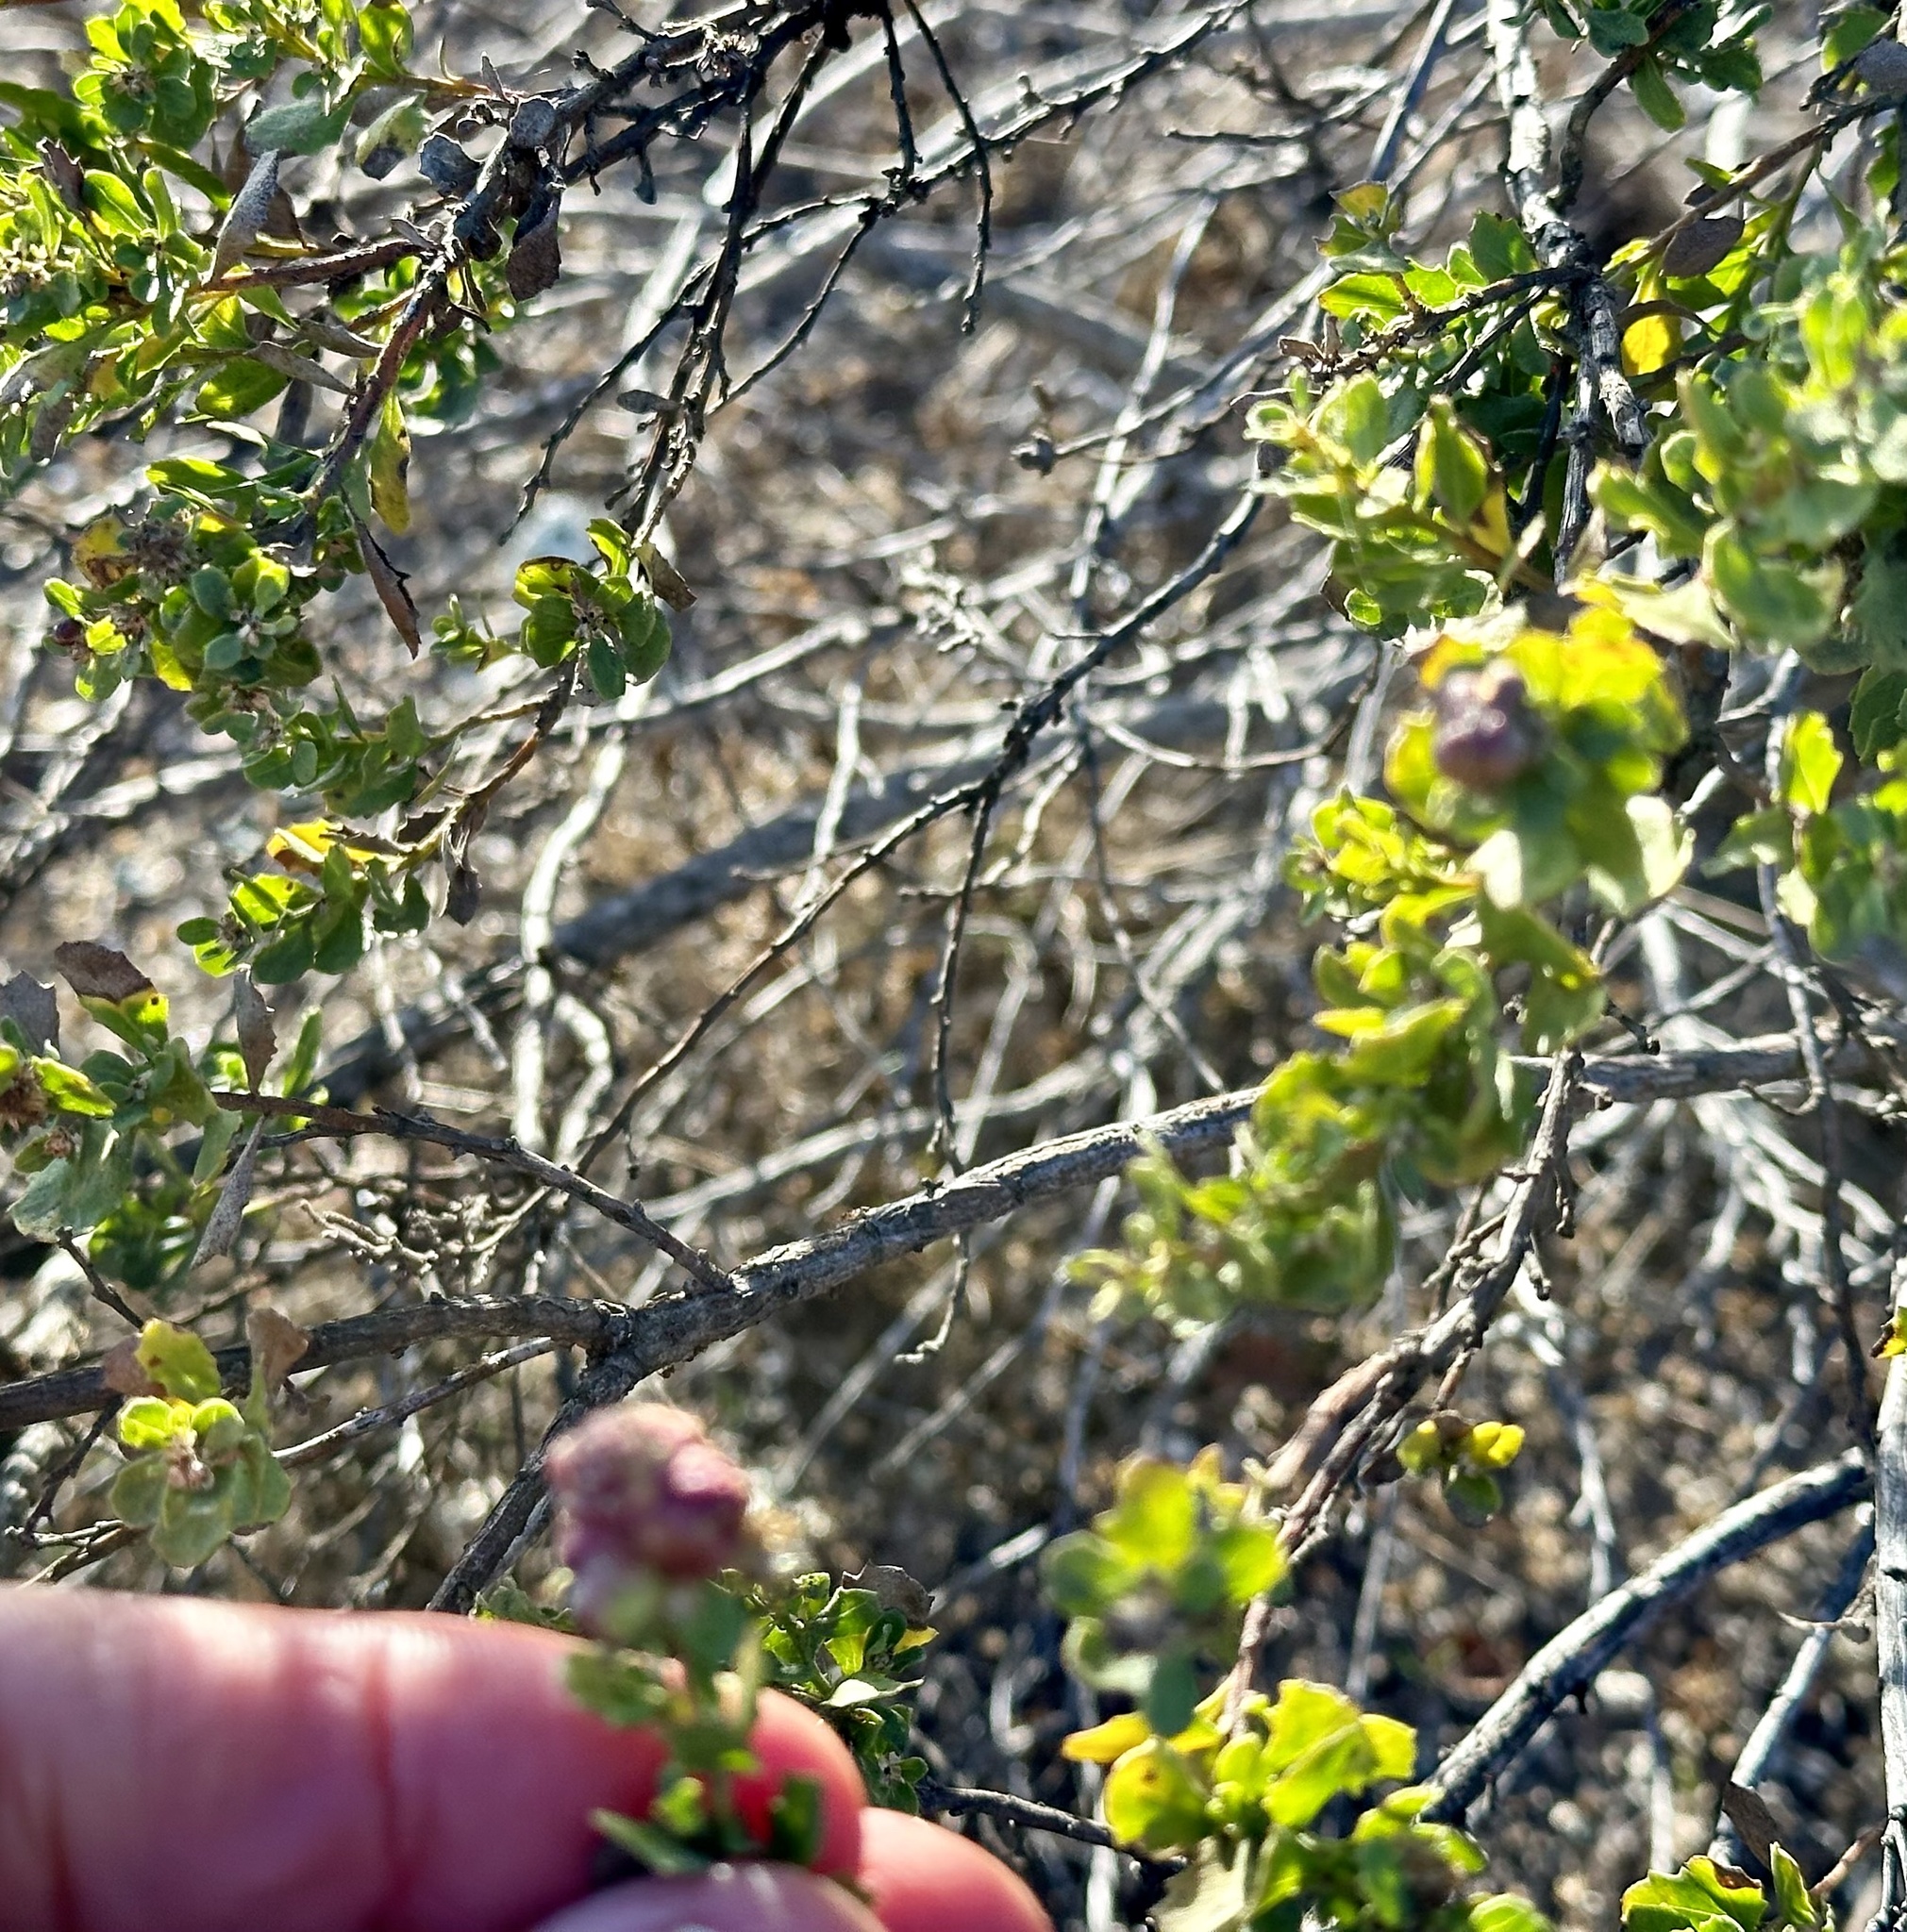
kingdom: Animalia
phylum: Arthropoda
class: Insecta
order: Diptera
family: Cecidomyiidae
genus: Rhopalomyia
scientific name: Rhopalomyia californica
